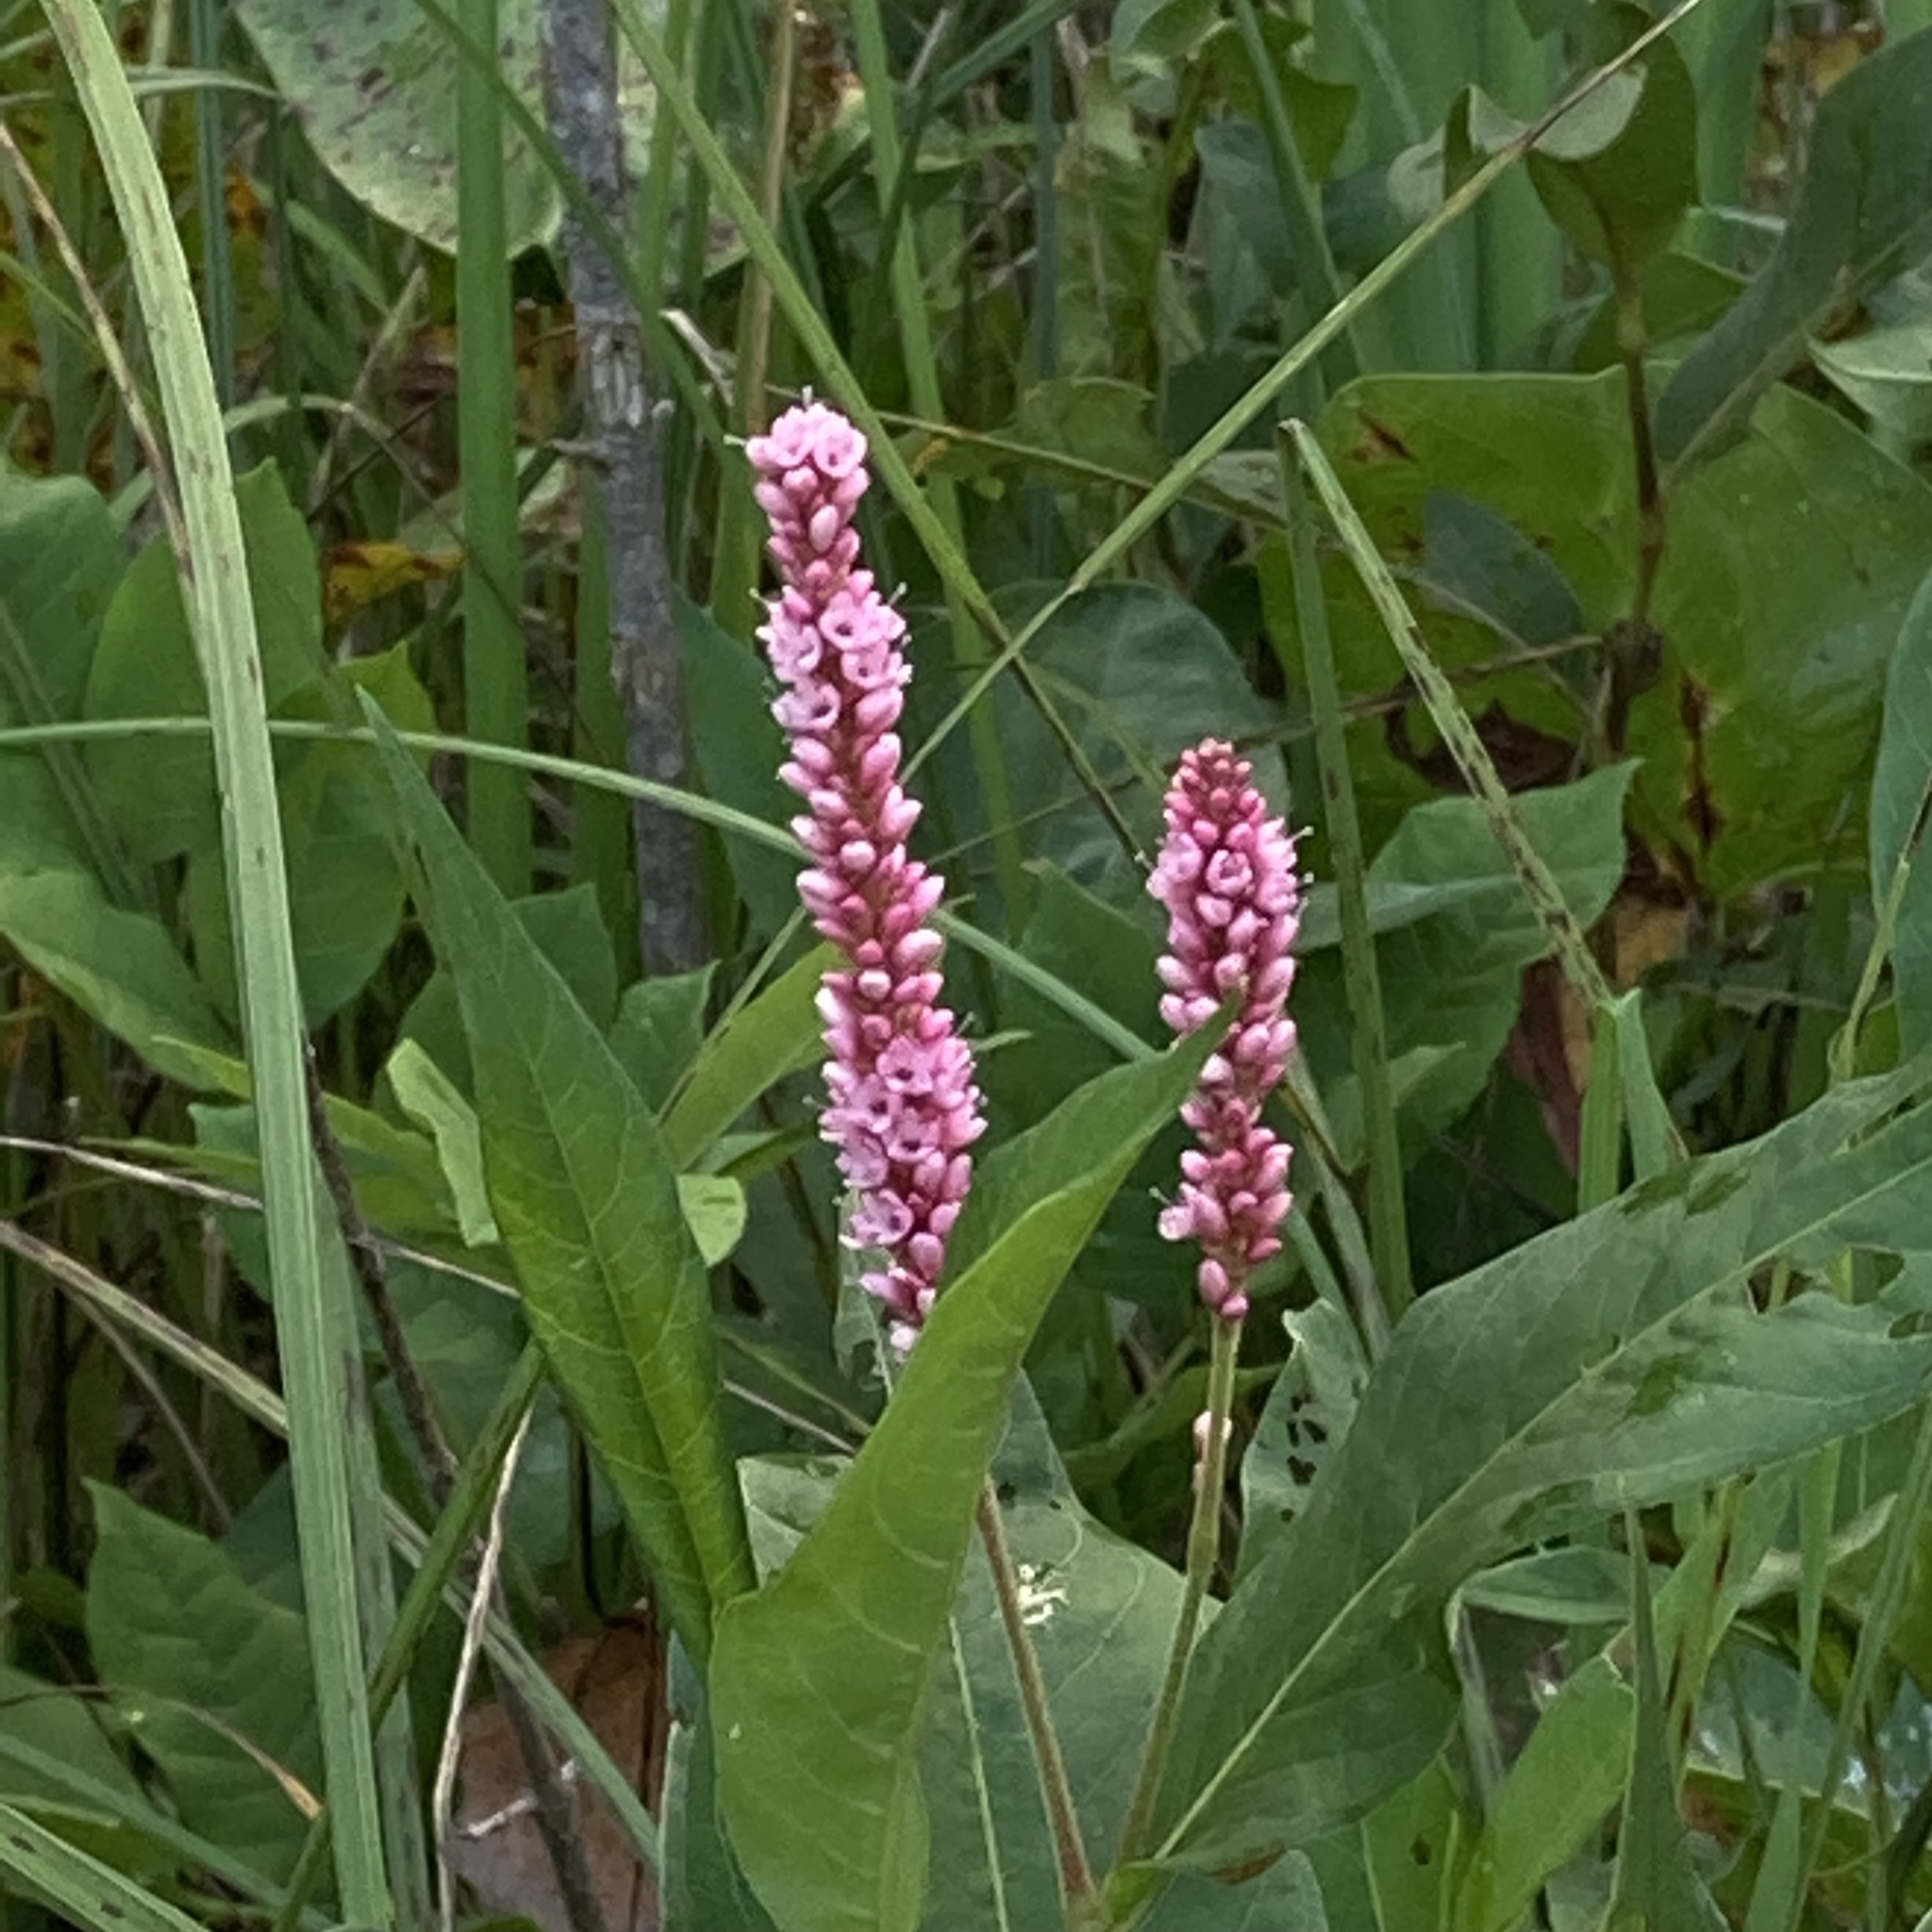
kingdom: Plantae
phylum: Tracheophyta
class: Magnoliopsida
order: Caryophyllales
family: Polygonaceae
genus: Persicaria
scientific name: Persicaria amphibia
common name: Amphibious bistort
